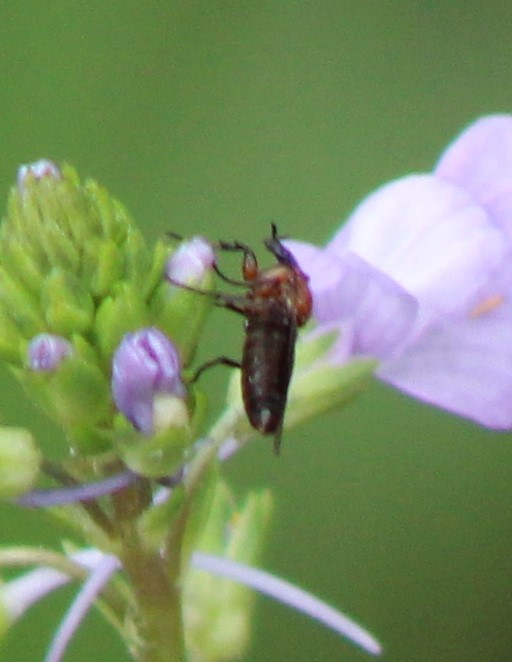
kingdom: Animalia
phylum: Arthropoda
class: Insecta
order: Diptera
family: Bibionidae
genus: Dilophus
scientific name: Dilophus
